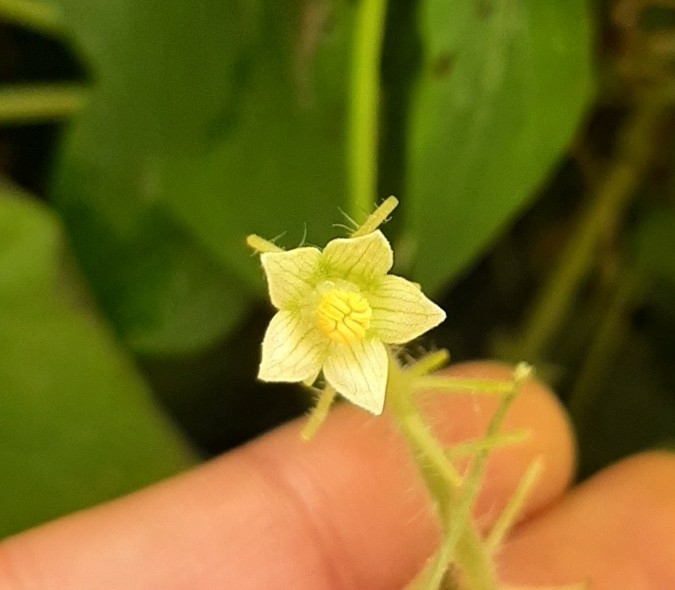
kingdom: Plantae
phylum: Tracheophyta
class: Magnoliopsida
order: Cucurbitales
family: Cucurbitaceae
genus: Sicyos
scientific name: Sicyos angulatus
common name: Angled burr cucumber
